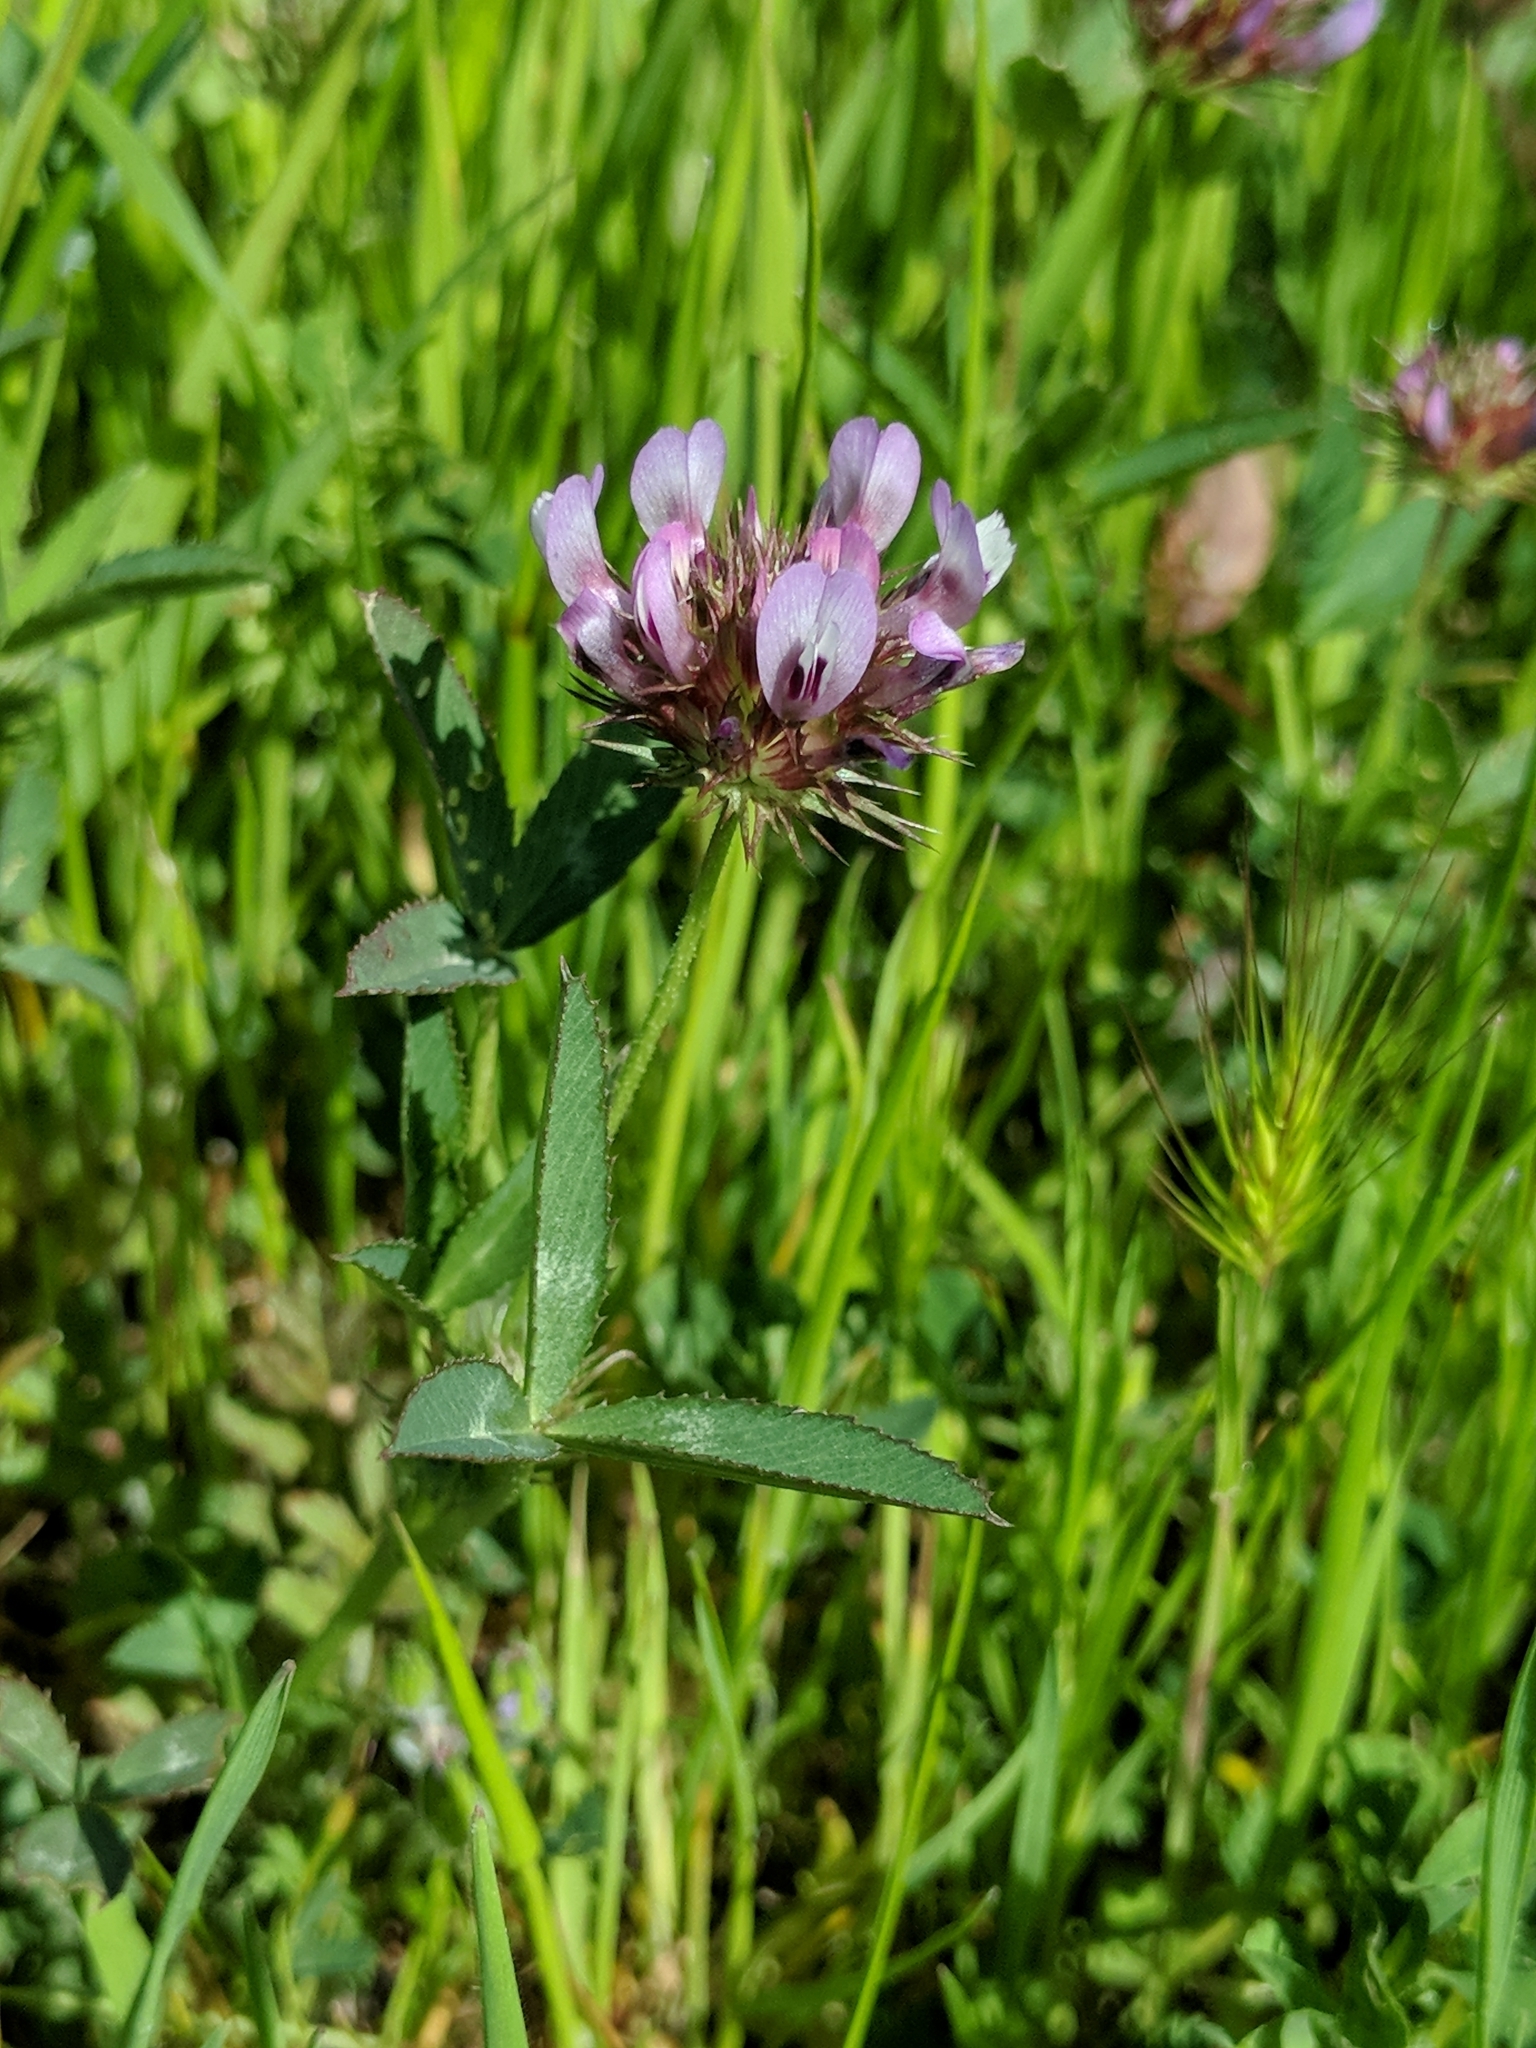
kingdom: Plantae
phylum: Tracheophyta
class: Magnoliopsida
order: Fabales
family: Fabaceae
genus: Trifolium
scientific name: Trifolium willdenovii
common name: Tomcat clover
